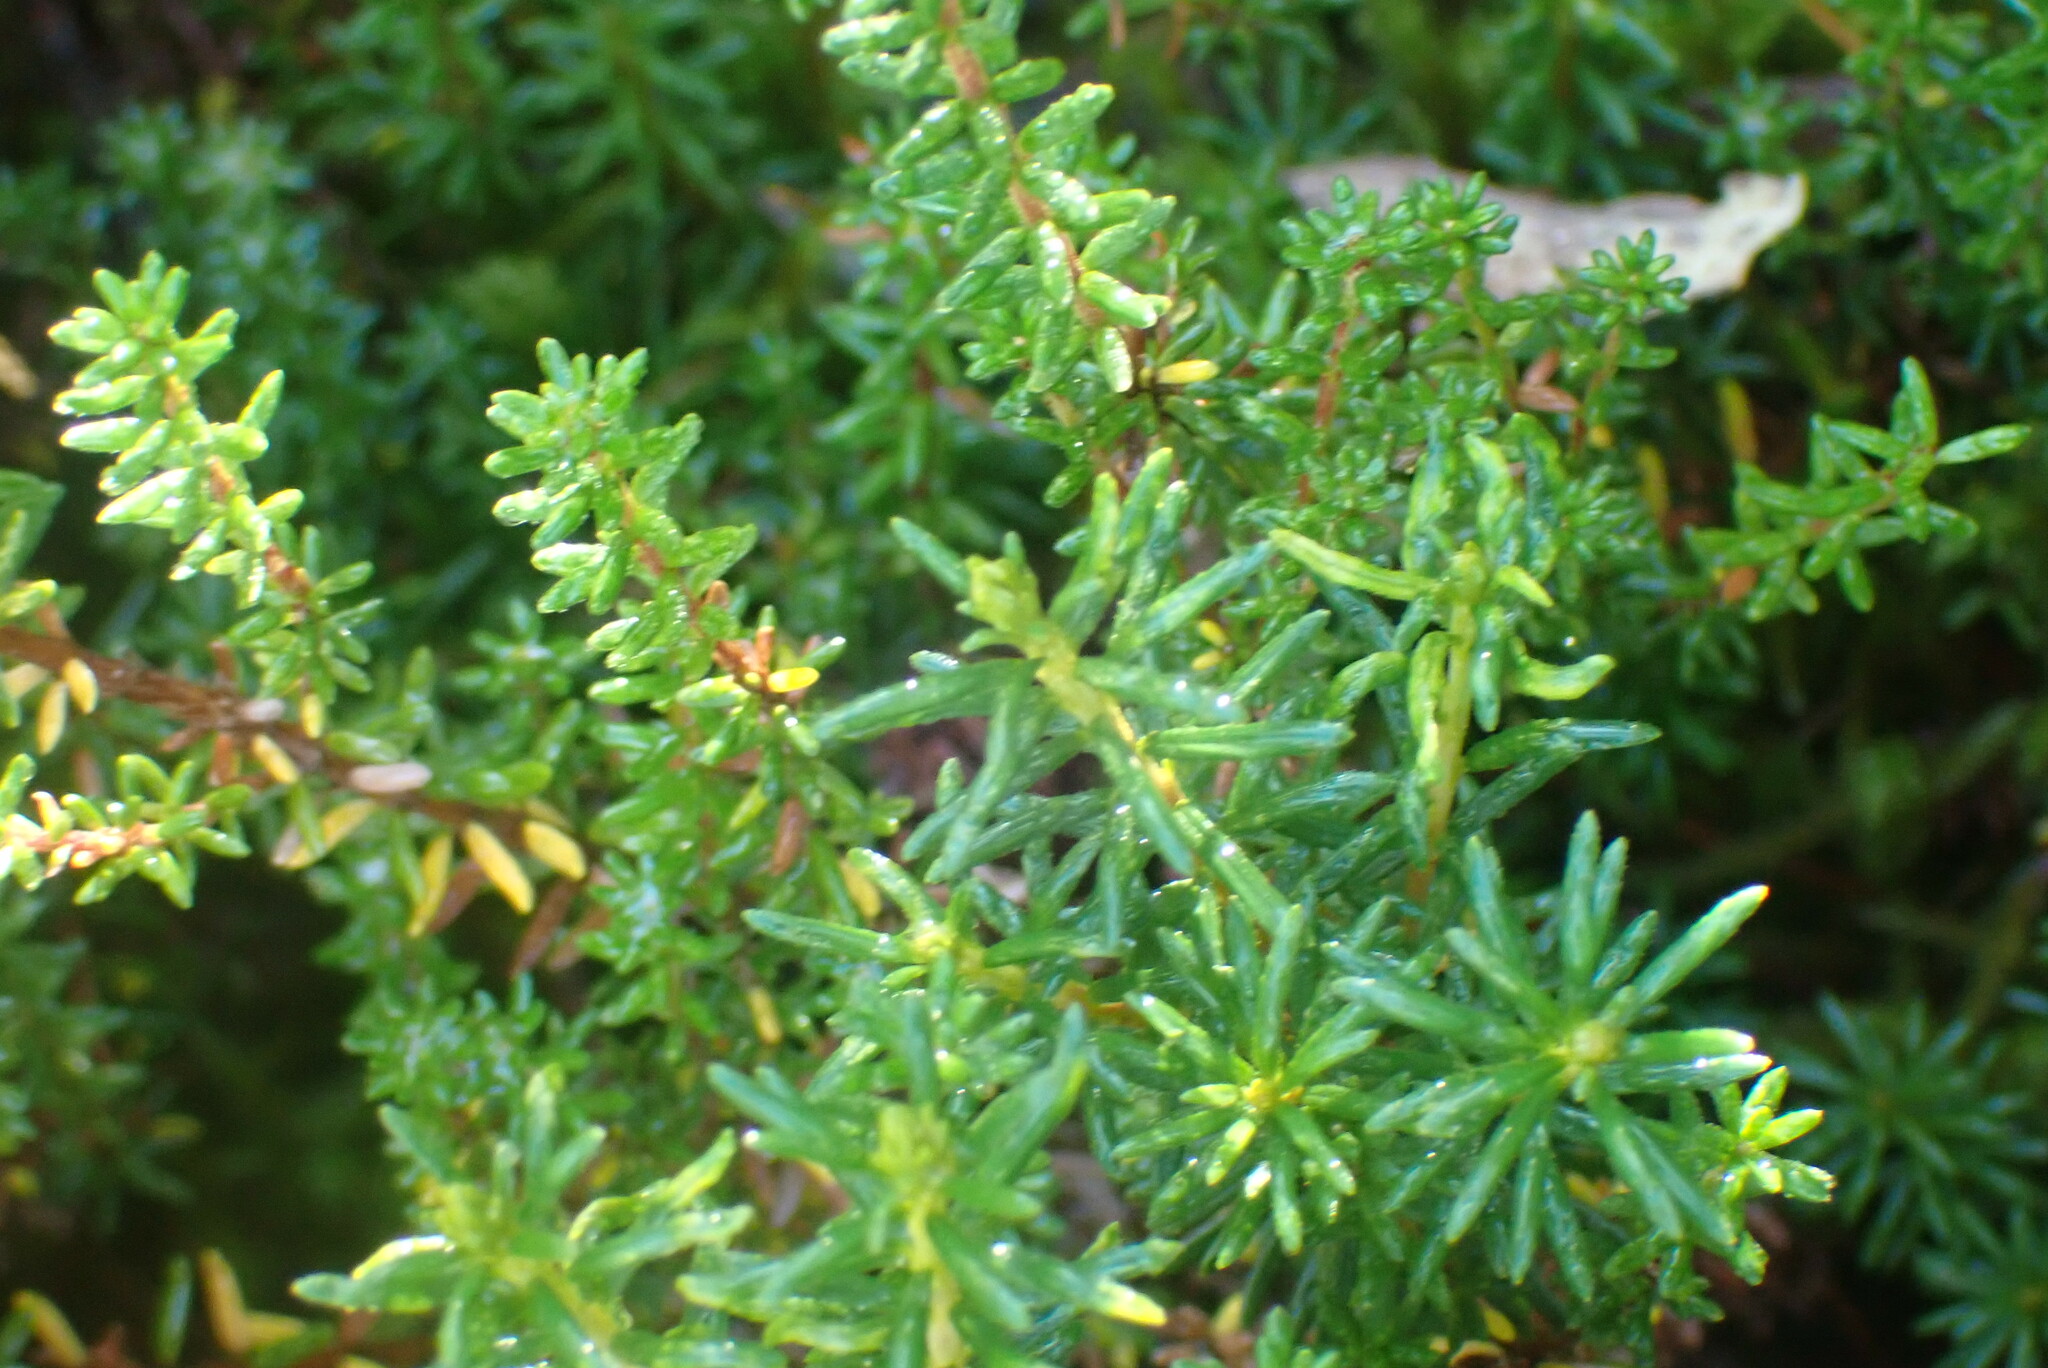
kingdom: Plantae
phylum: Tracheophyta
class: Magnoliopsida
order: Ericales
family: Ericaceae
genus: Empetrum
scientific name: Empetrum nigrum
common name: Black crowberry
